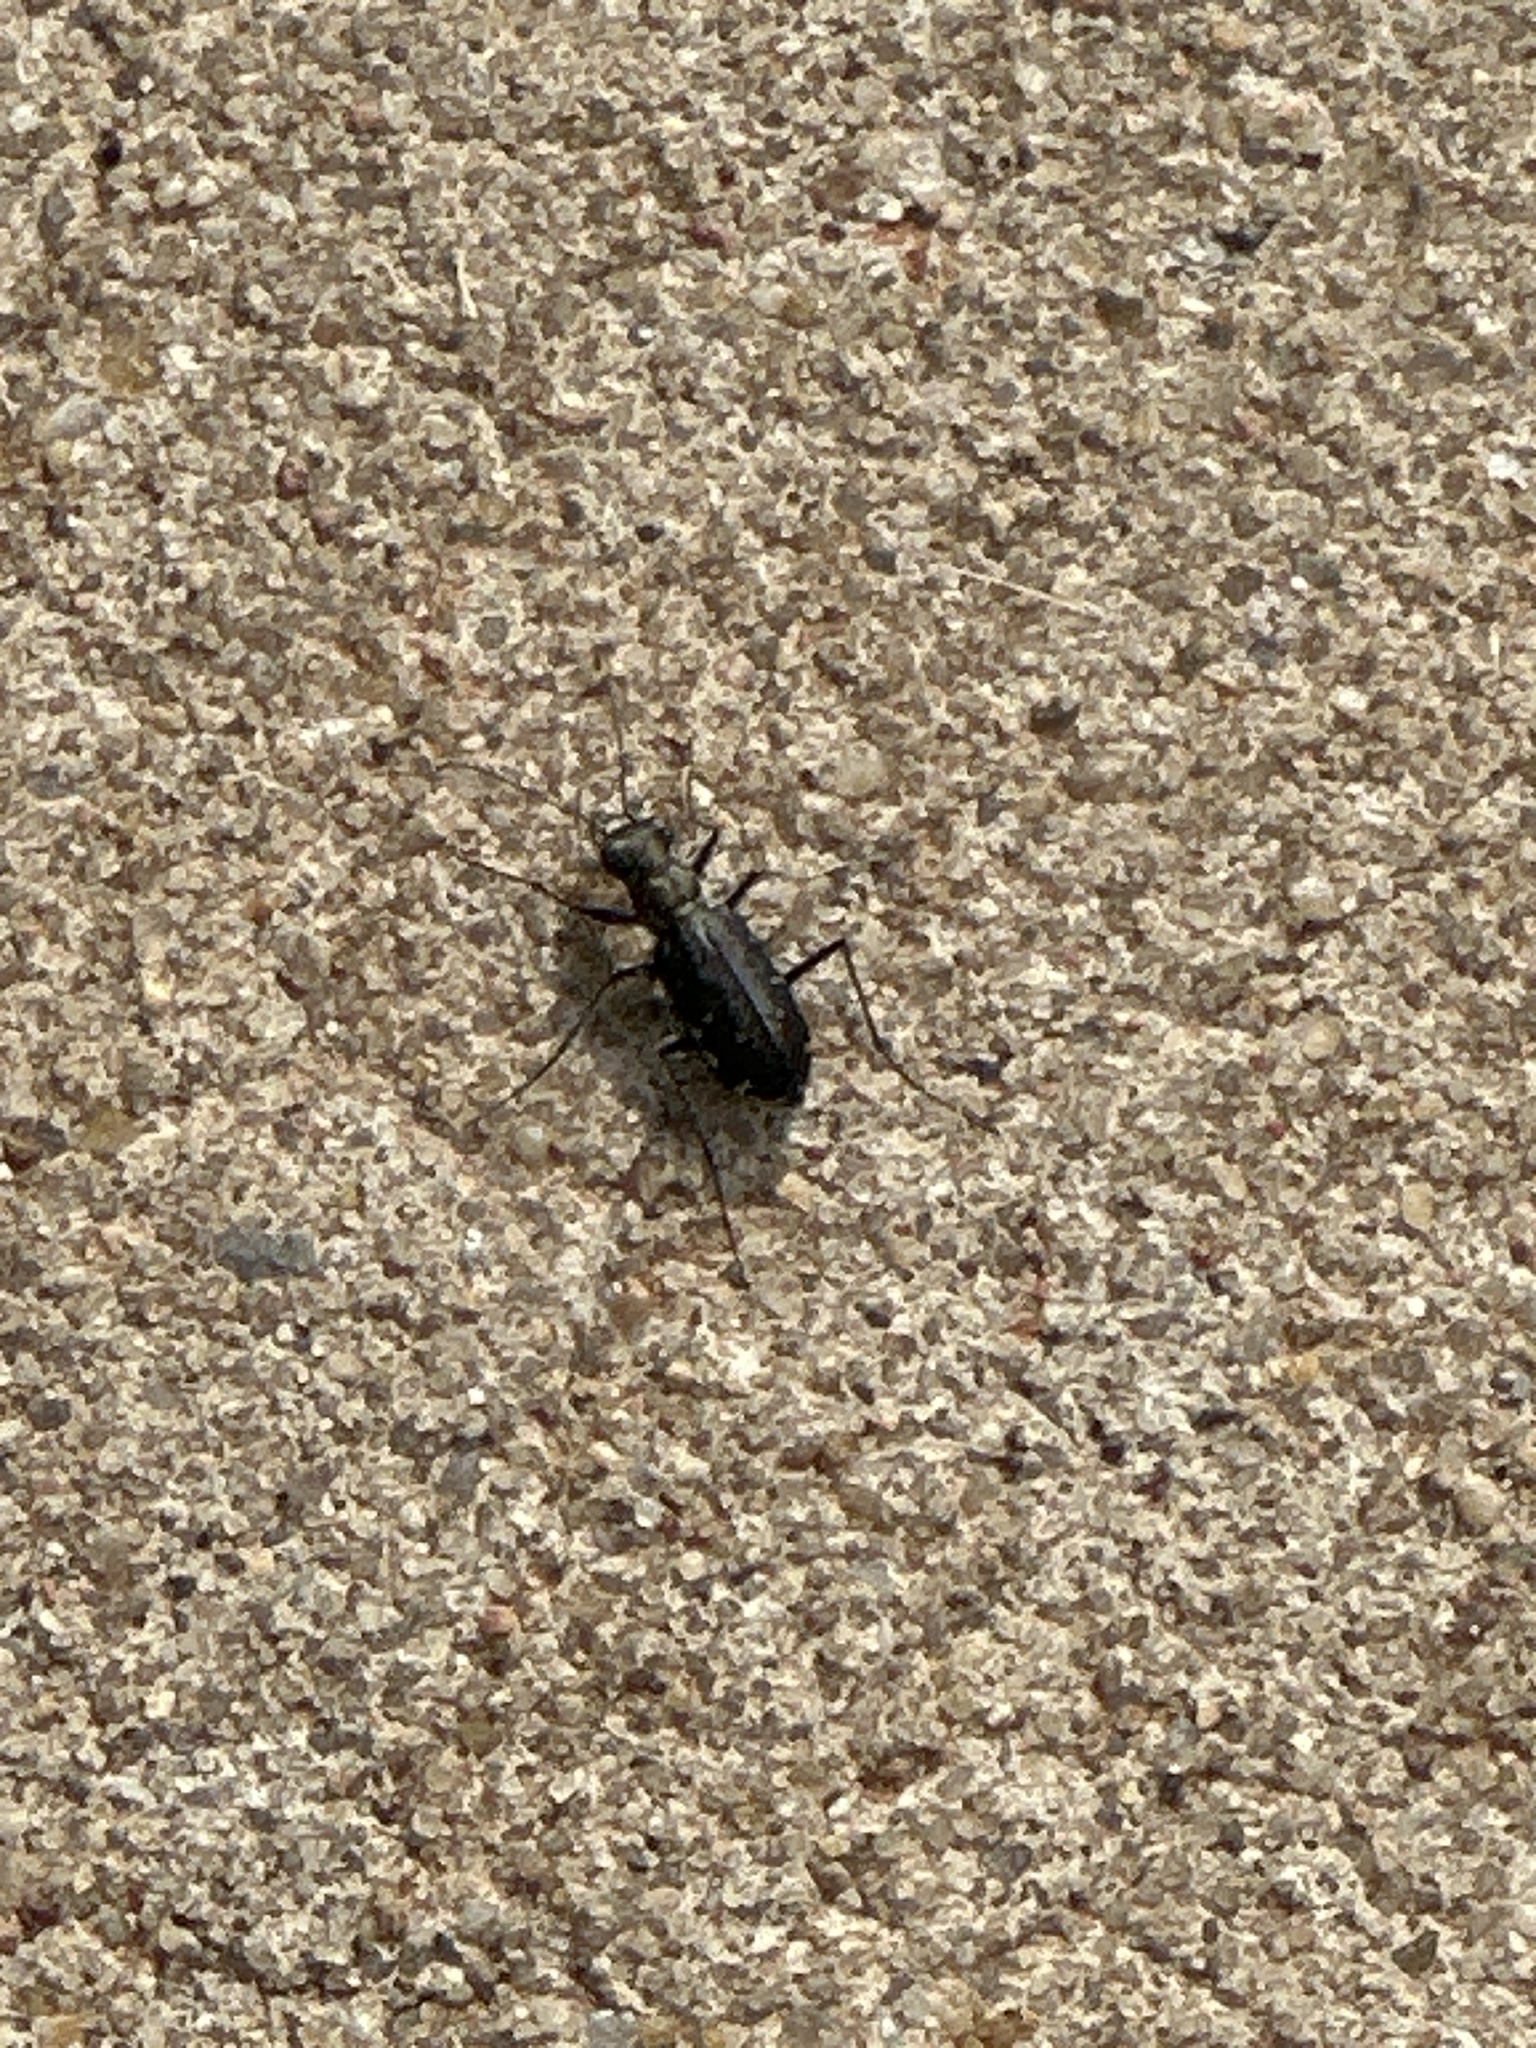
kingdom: Animalia
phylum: Arthropoda
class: Insecta
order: Coleoptera
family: Carabidae
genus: Cicindela
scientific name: Cicindela punctulata
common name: Punctured tiger beetle
